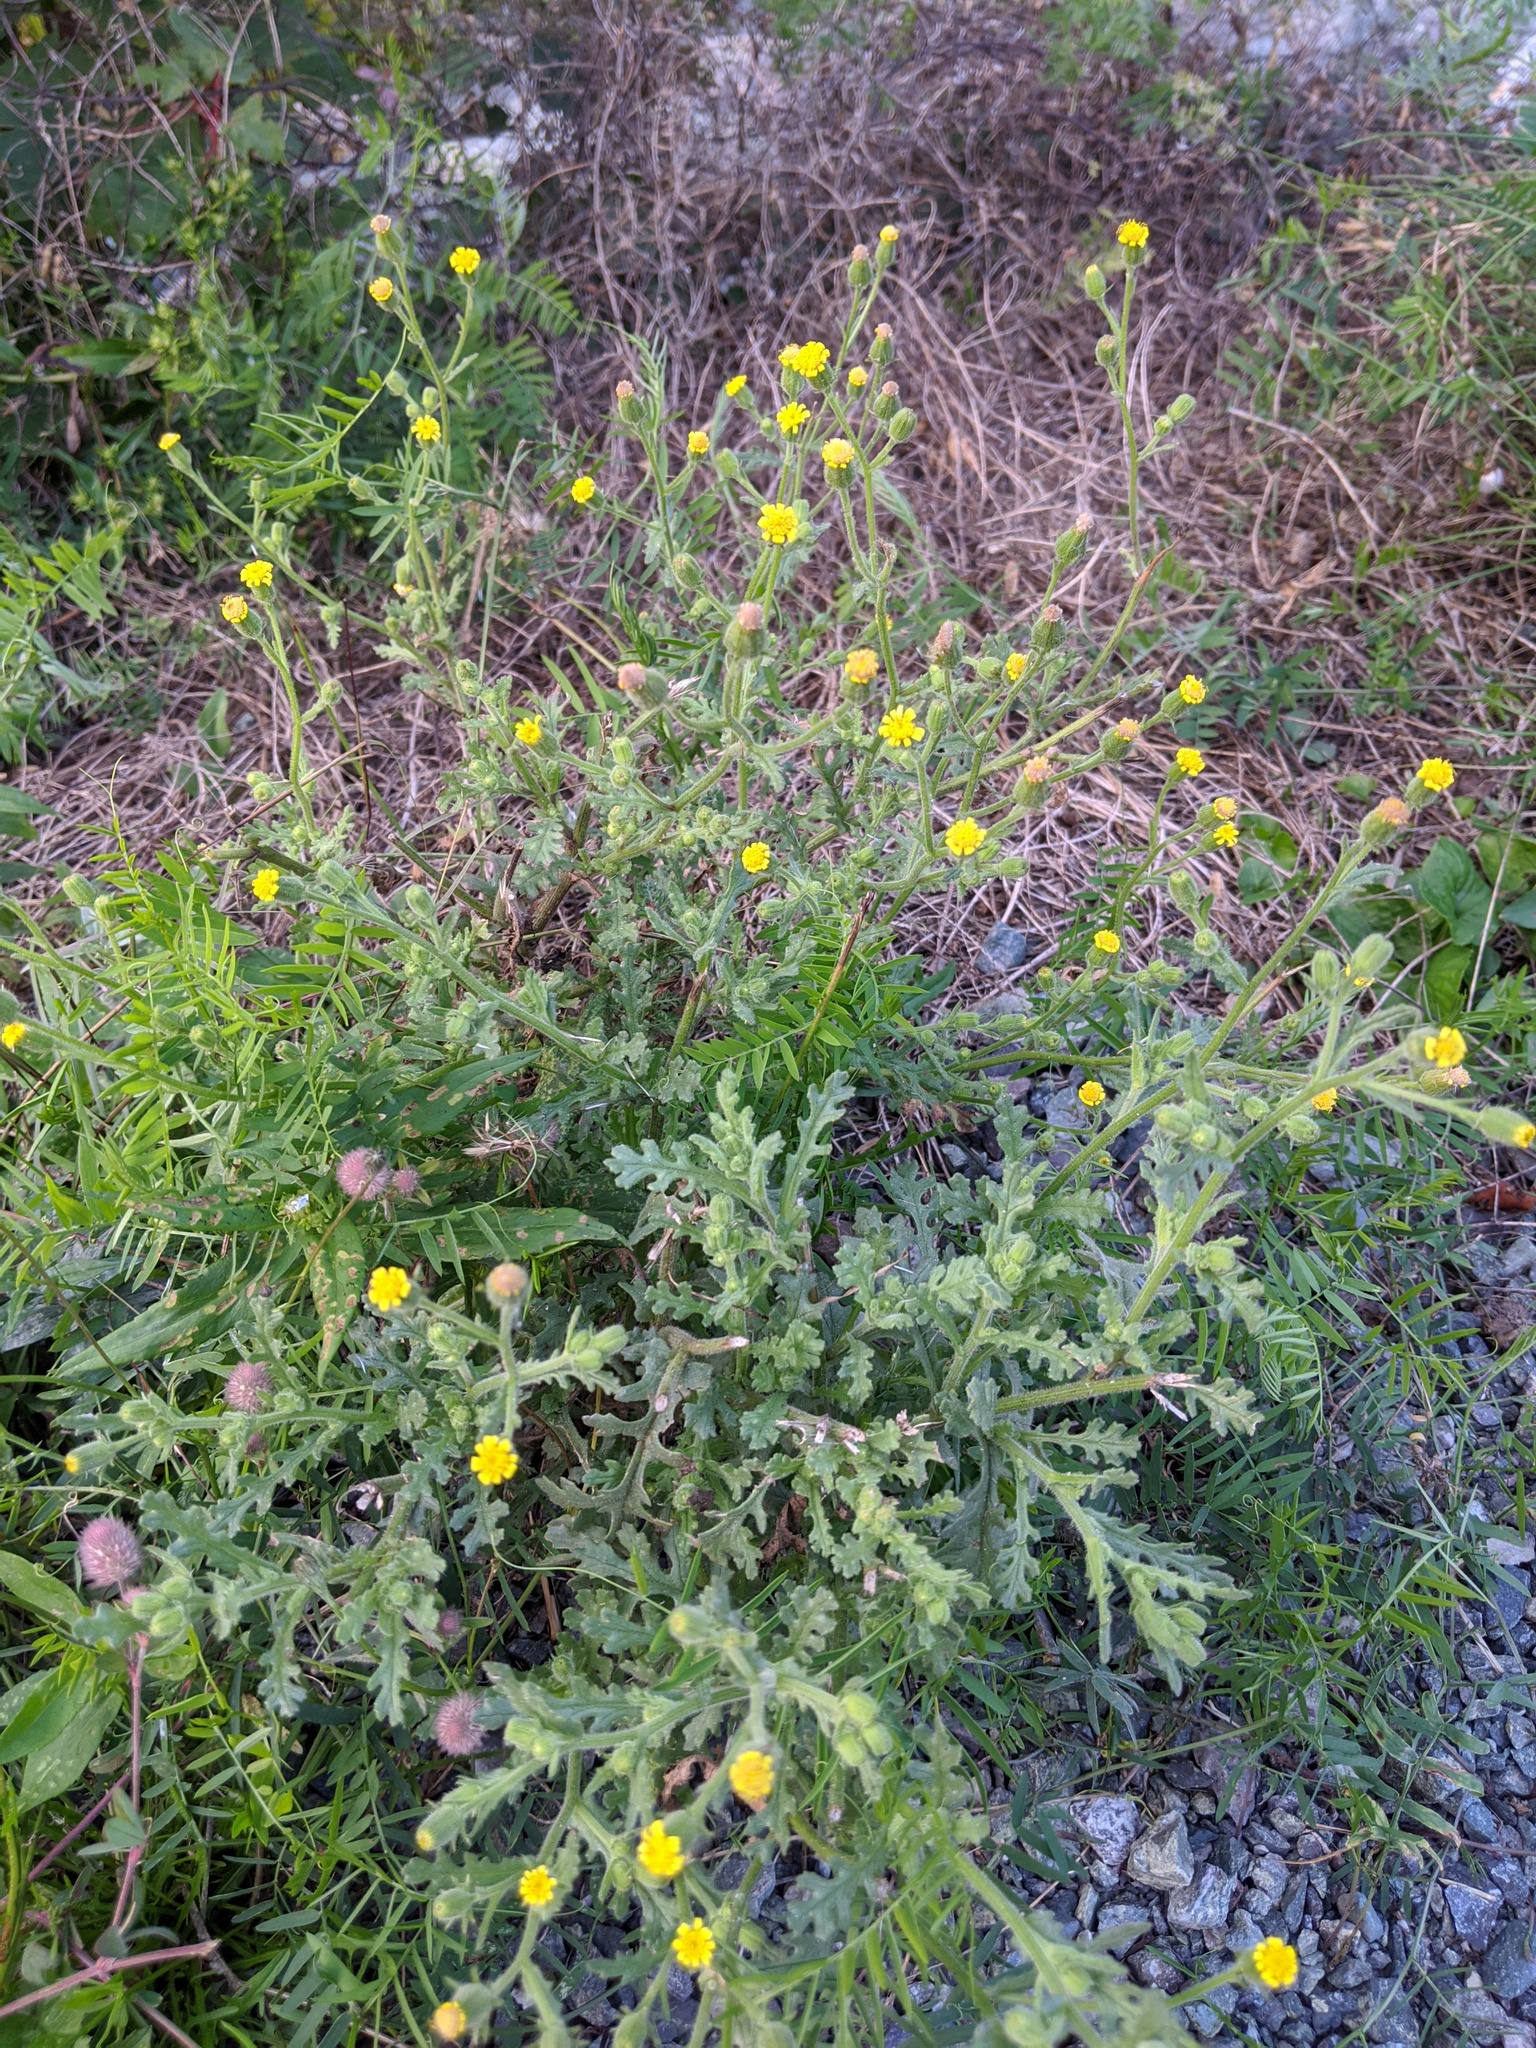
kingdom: Plantae
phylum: Tracheophyta
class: Magnoliopsida
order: Asterales
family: Asteraceae
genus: Senecio
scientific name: Senecio viscosus
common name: Sticky groundsel
